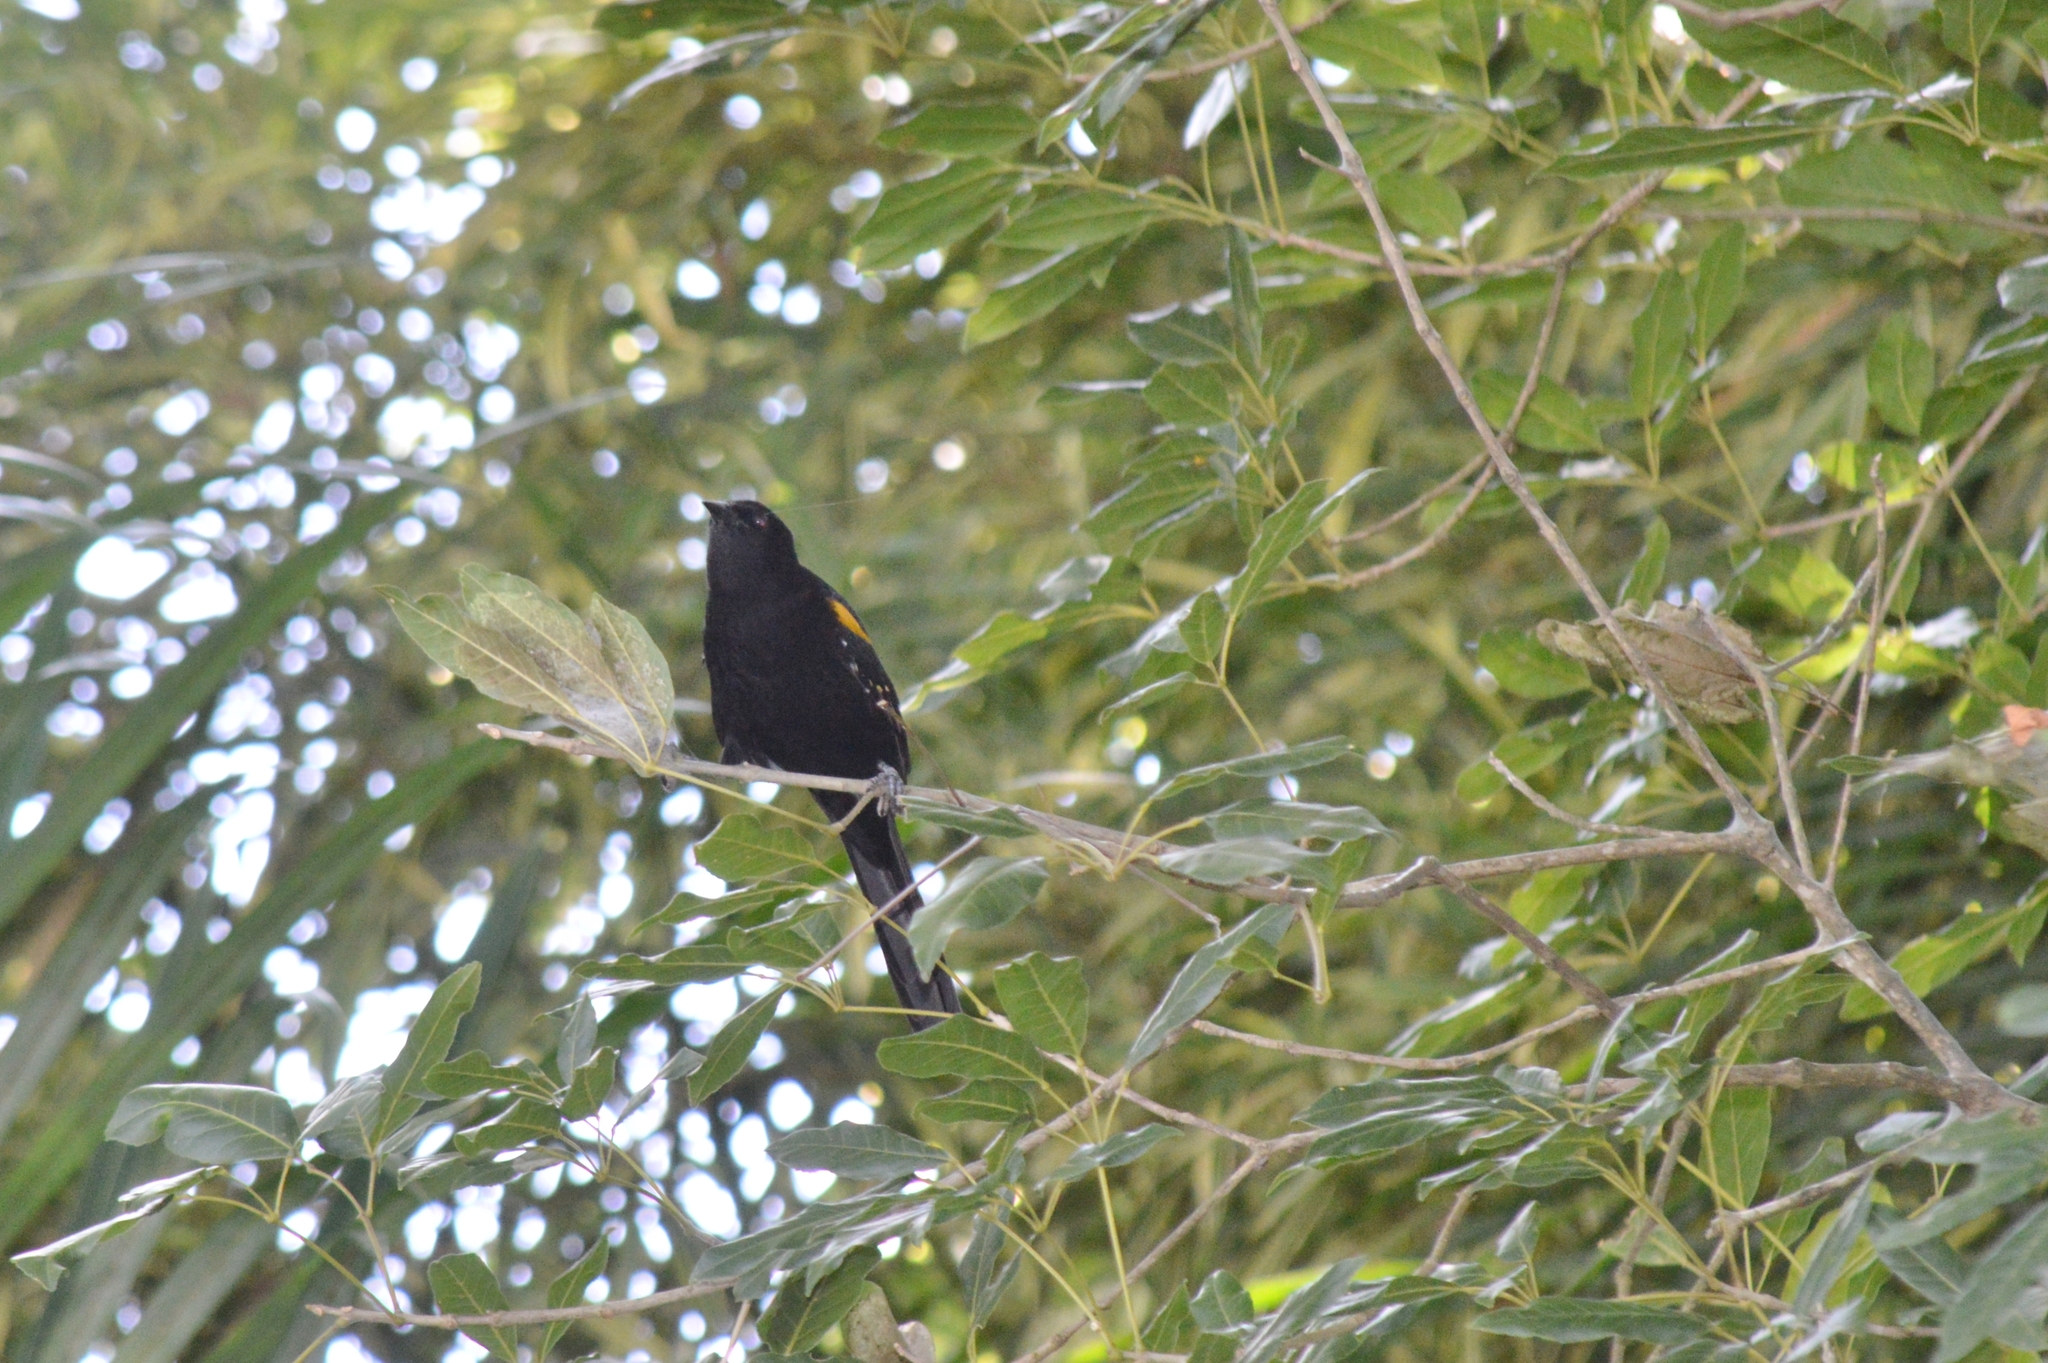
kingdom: Animalia
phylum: Chordata
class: Aves
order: Passeriformes
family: Icteridae
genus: Icterus
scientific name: Icterus cayanensis
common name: Epaulet oriole
